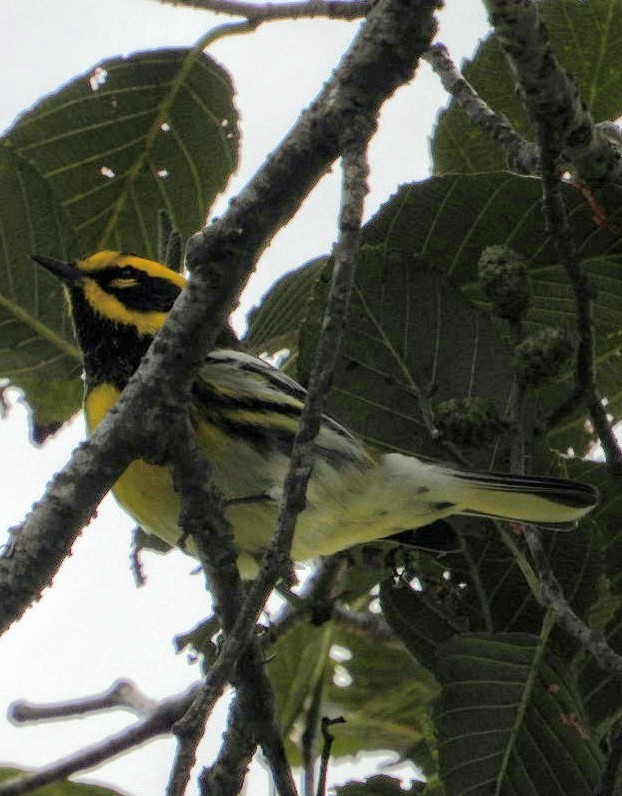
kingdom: Animalia
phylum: Chordata
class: Aves
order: Passeriformes
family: Parulidae
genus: Setophaga
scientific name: Setophaga townsendi
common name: Townsend's warbler
